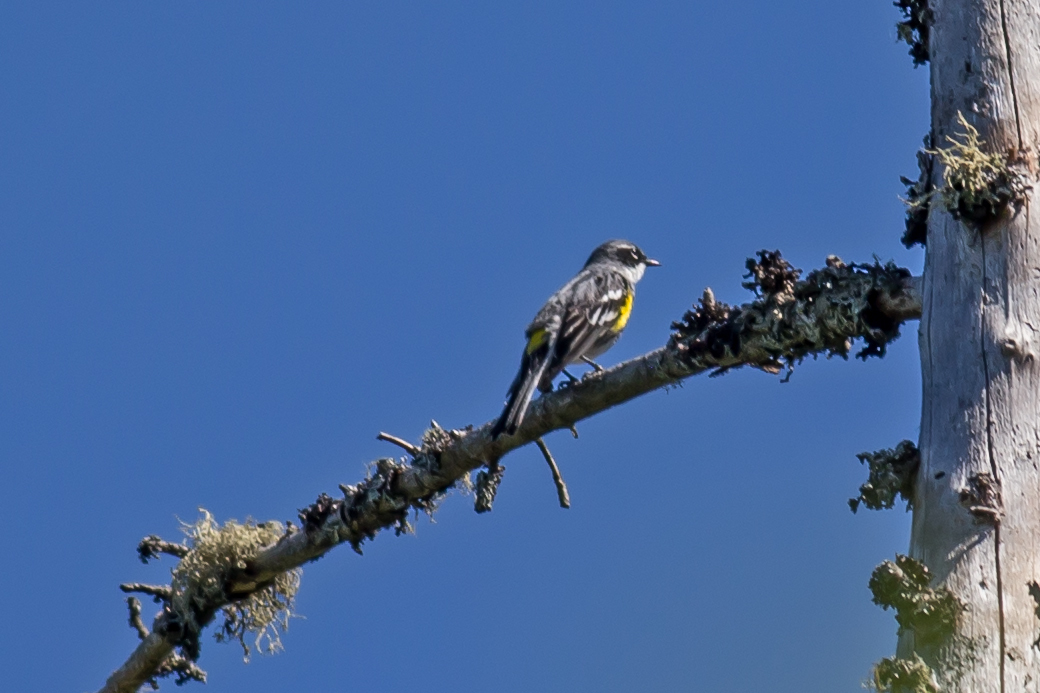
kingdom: Animalia
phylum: Chordata
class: Aves
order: Passeriformes
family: Parulidae
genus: Setophaga
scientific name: Setophaga coronata
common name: Myrtle warbler
